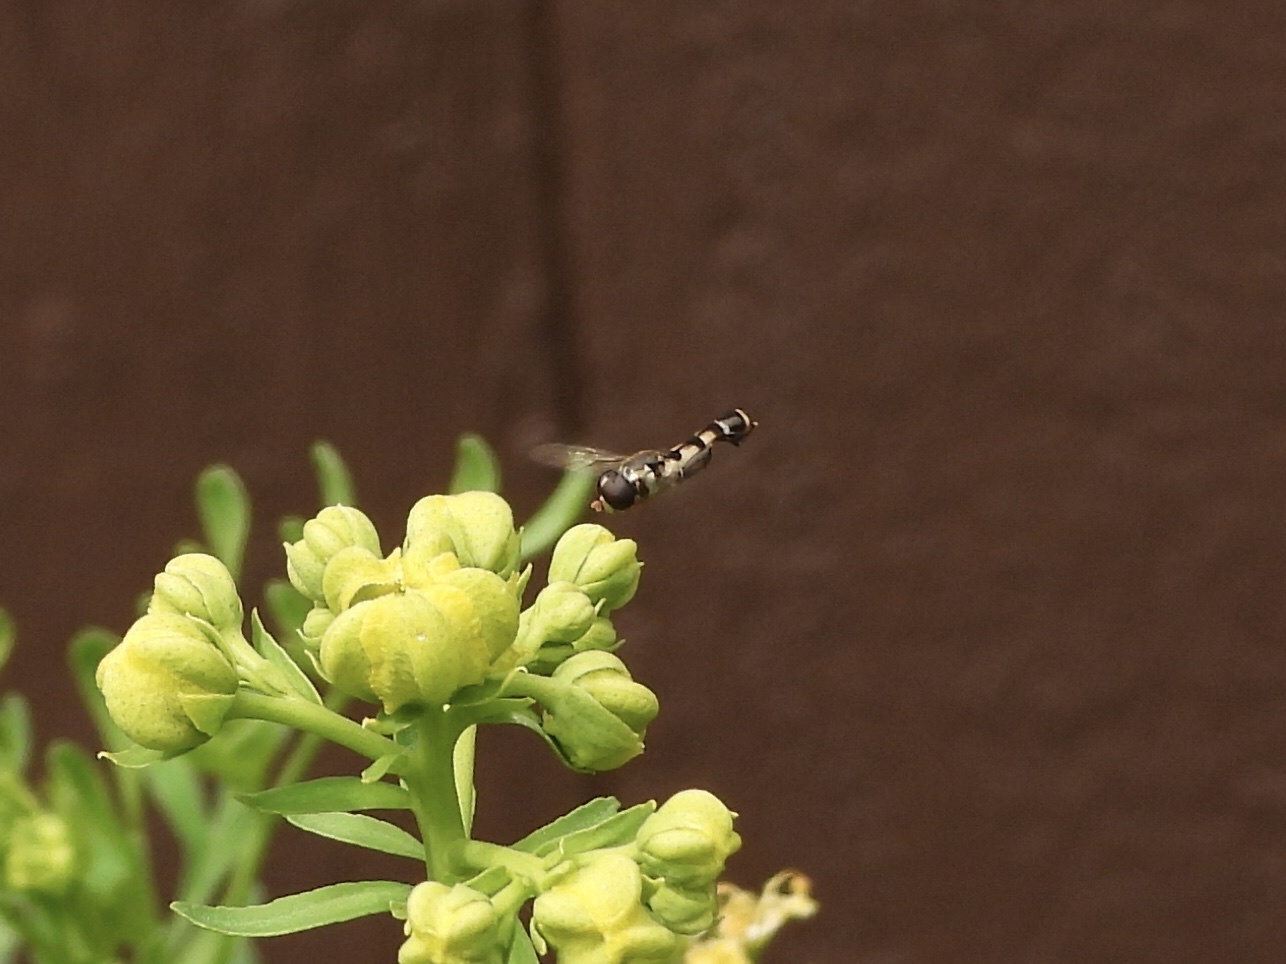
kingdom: Animalia
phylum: Arthropoda
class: Insecta
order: Diptera
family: Syrphidae
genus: Syritta
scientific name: Syritta pipiens
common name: Hover fly
